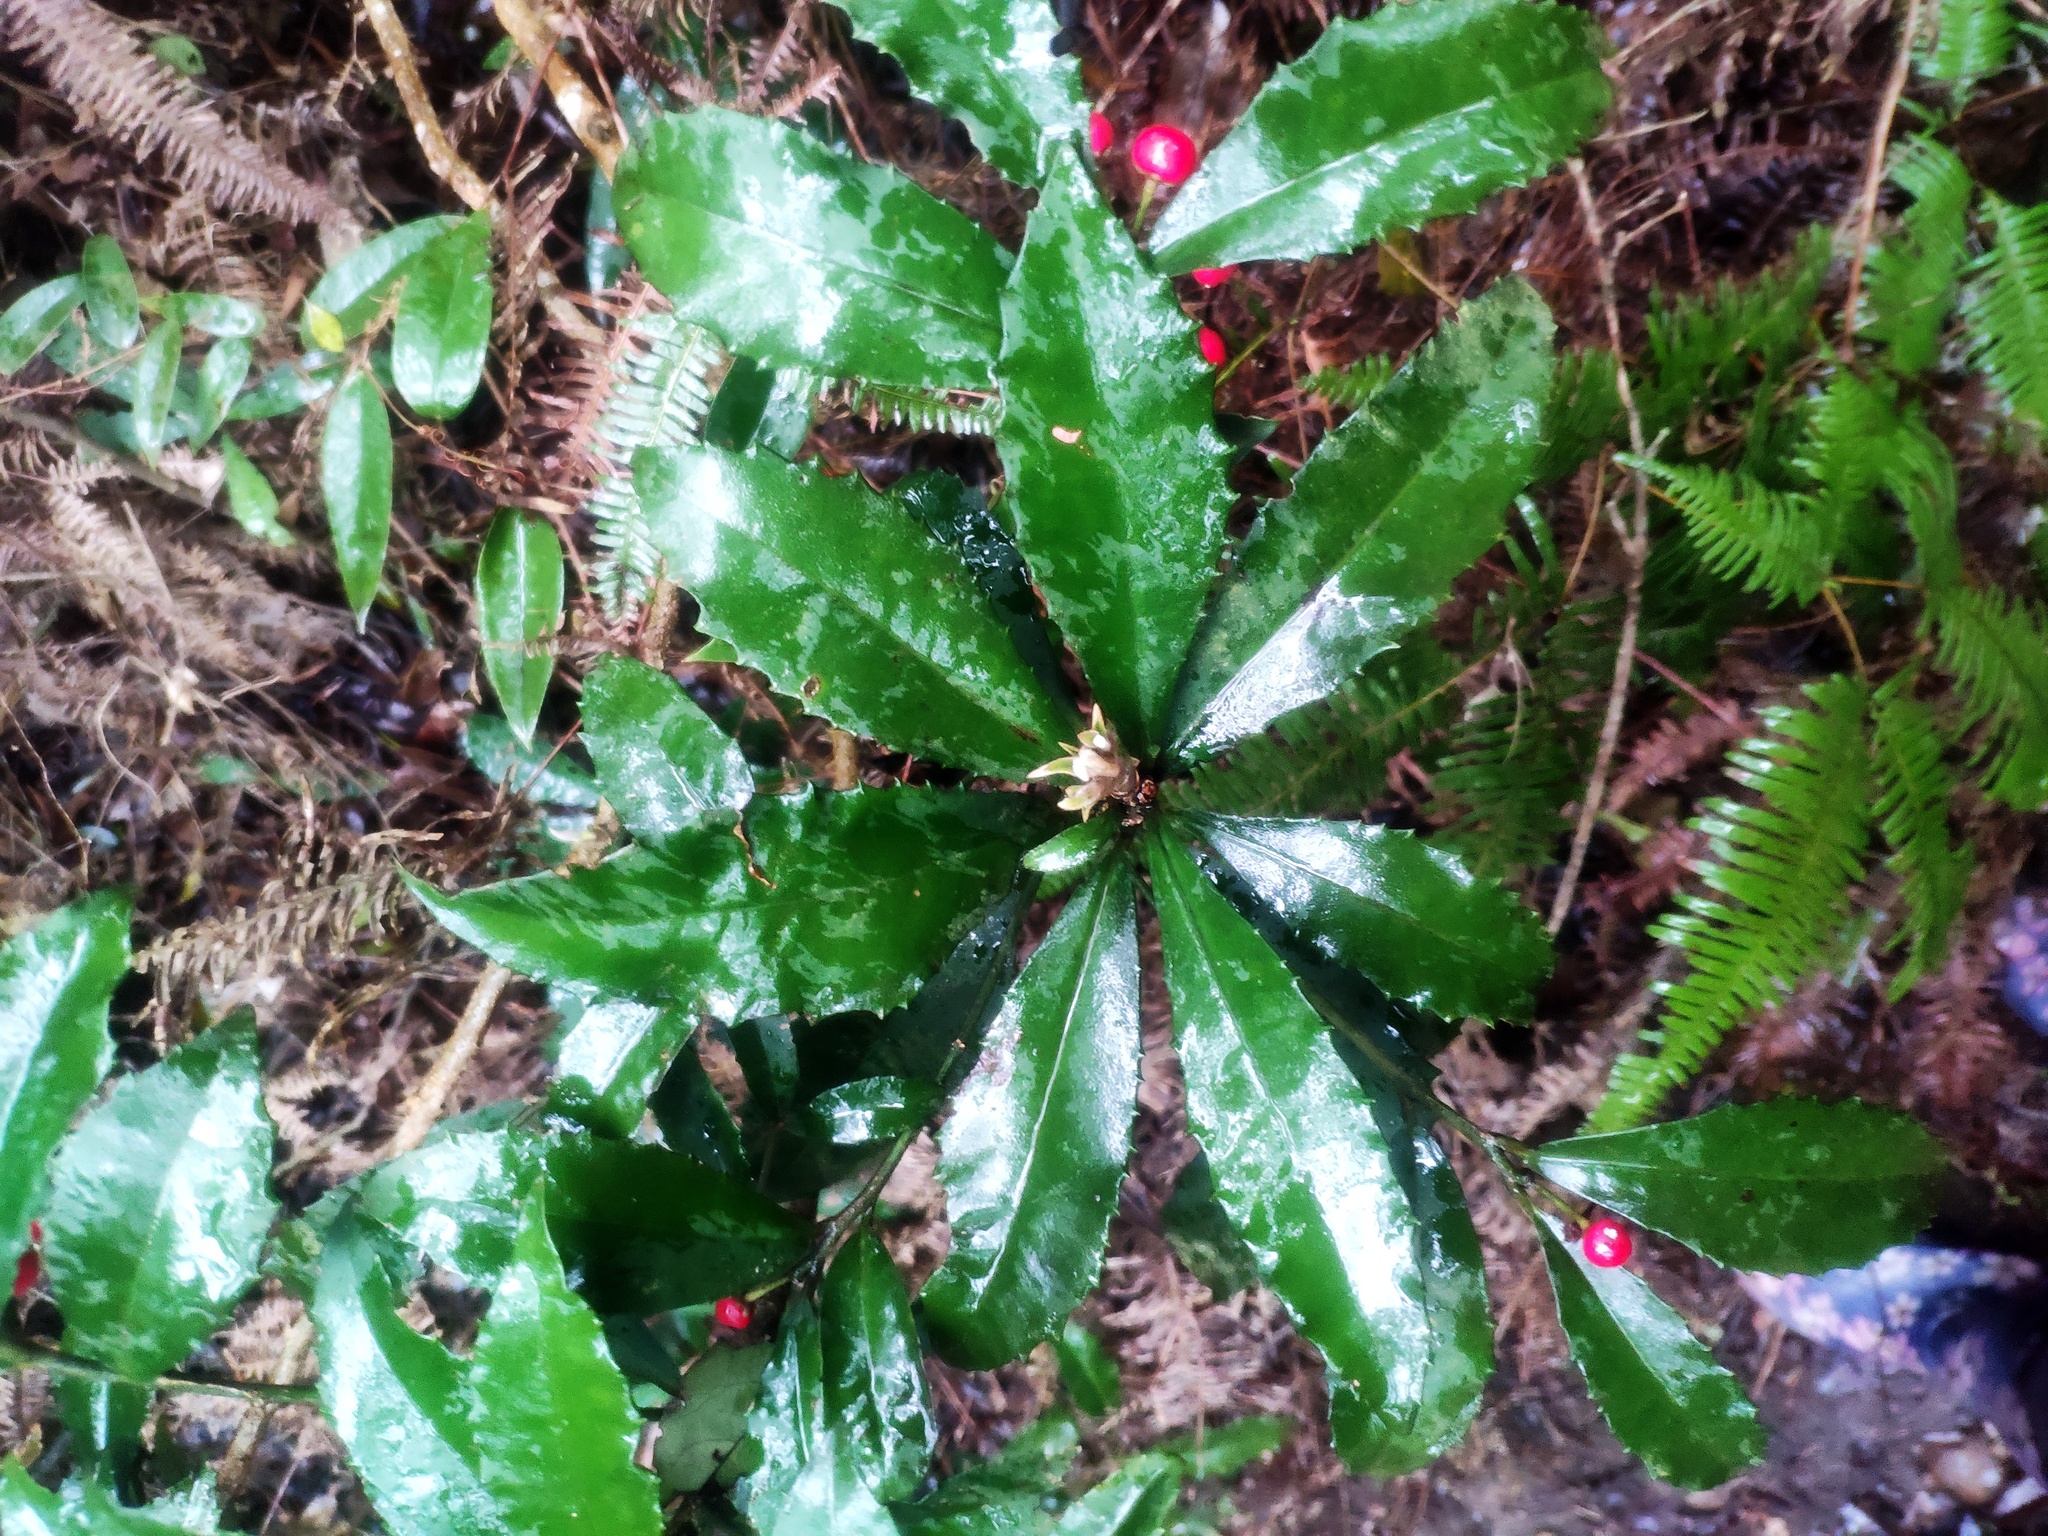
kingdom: Plantae
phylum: Tracheophyta
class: Magnoliopsida
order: Ericales
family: Primulaceae
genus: Ardisia
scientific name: Ardisia cornudentata
